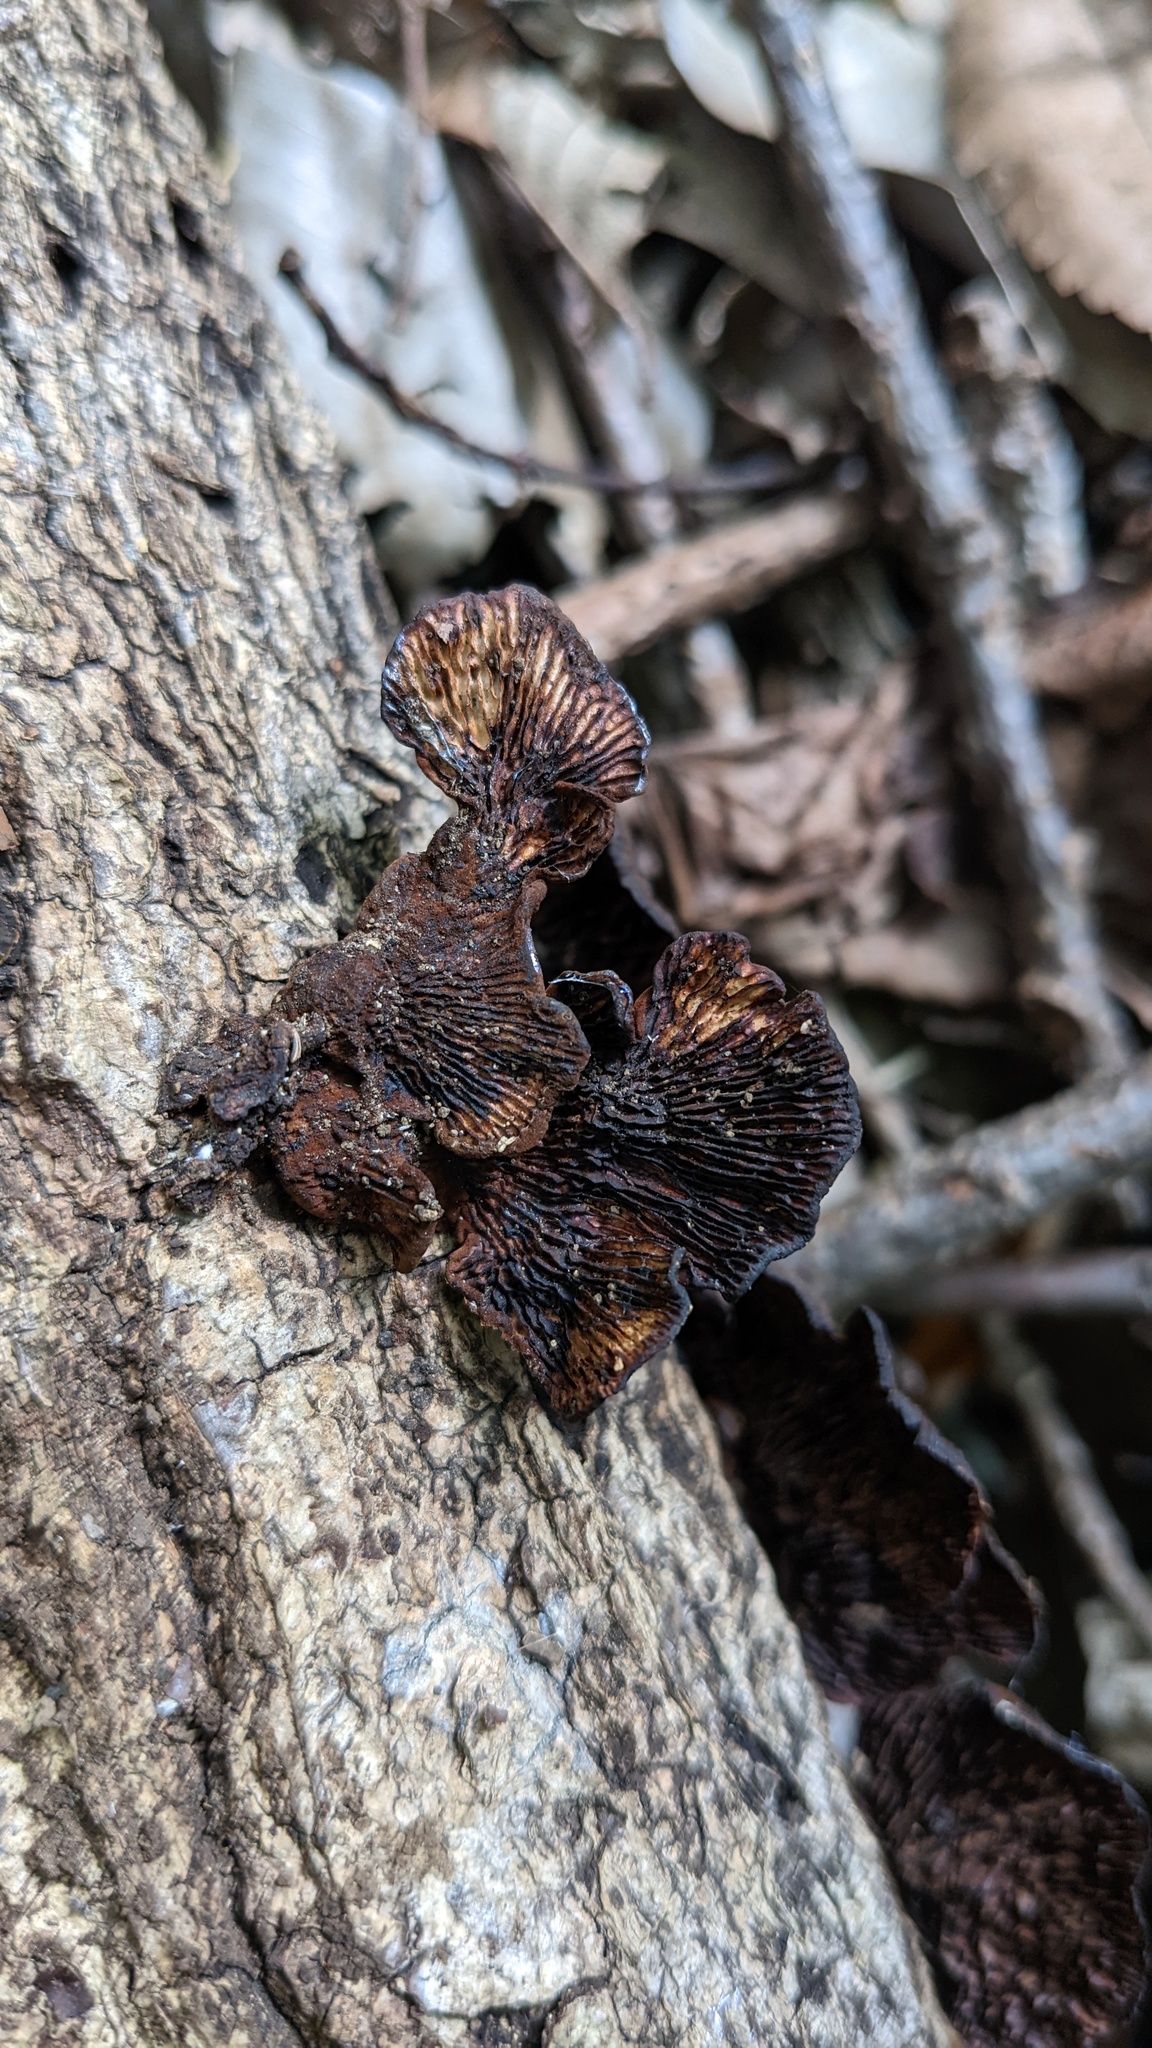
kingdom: Fungi
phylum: Basidiomycota
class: Agaricomycetes
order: Polyporales
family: Polyporaceae
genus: Daedaleopsis
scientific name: Daedaleopsis tricolor
